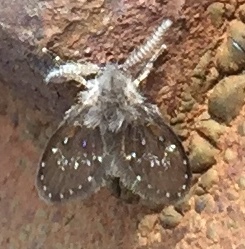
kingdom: Animalia
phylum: Arthropoda
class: Insecta
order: Diptera
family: Psychodidae
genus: Clogmia
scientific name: Clogmia albipunctatus
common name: White-spotted moth fly
